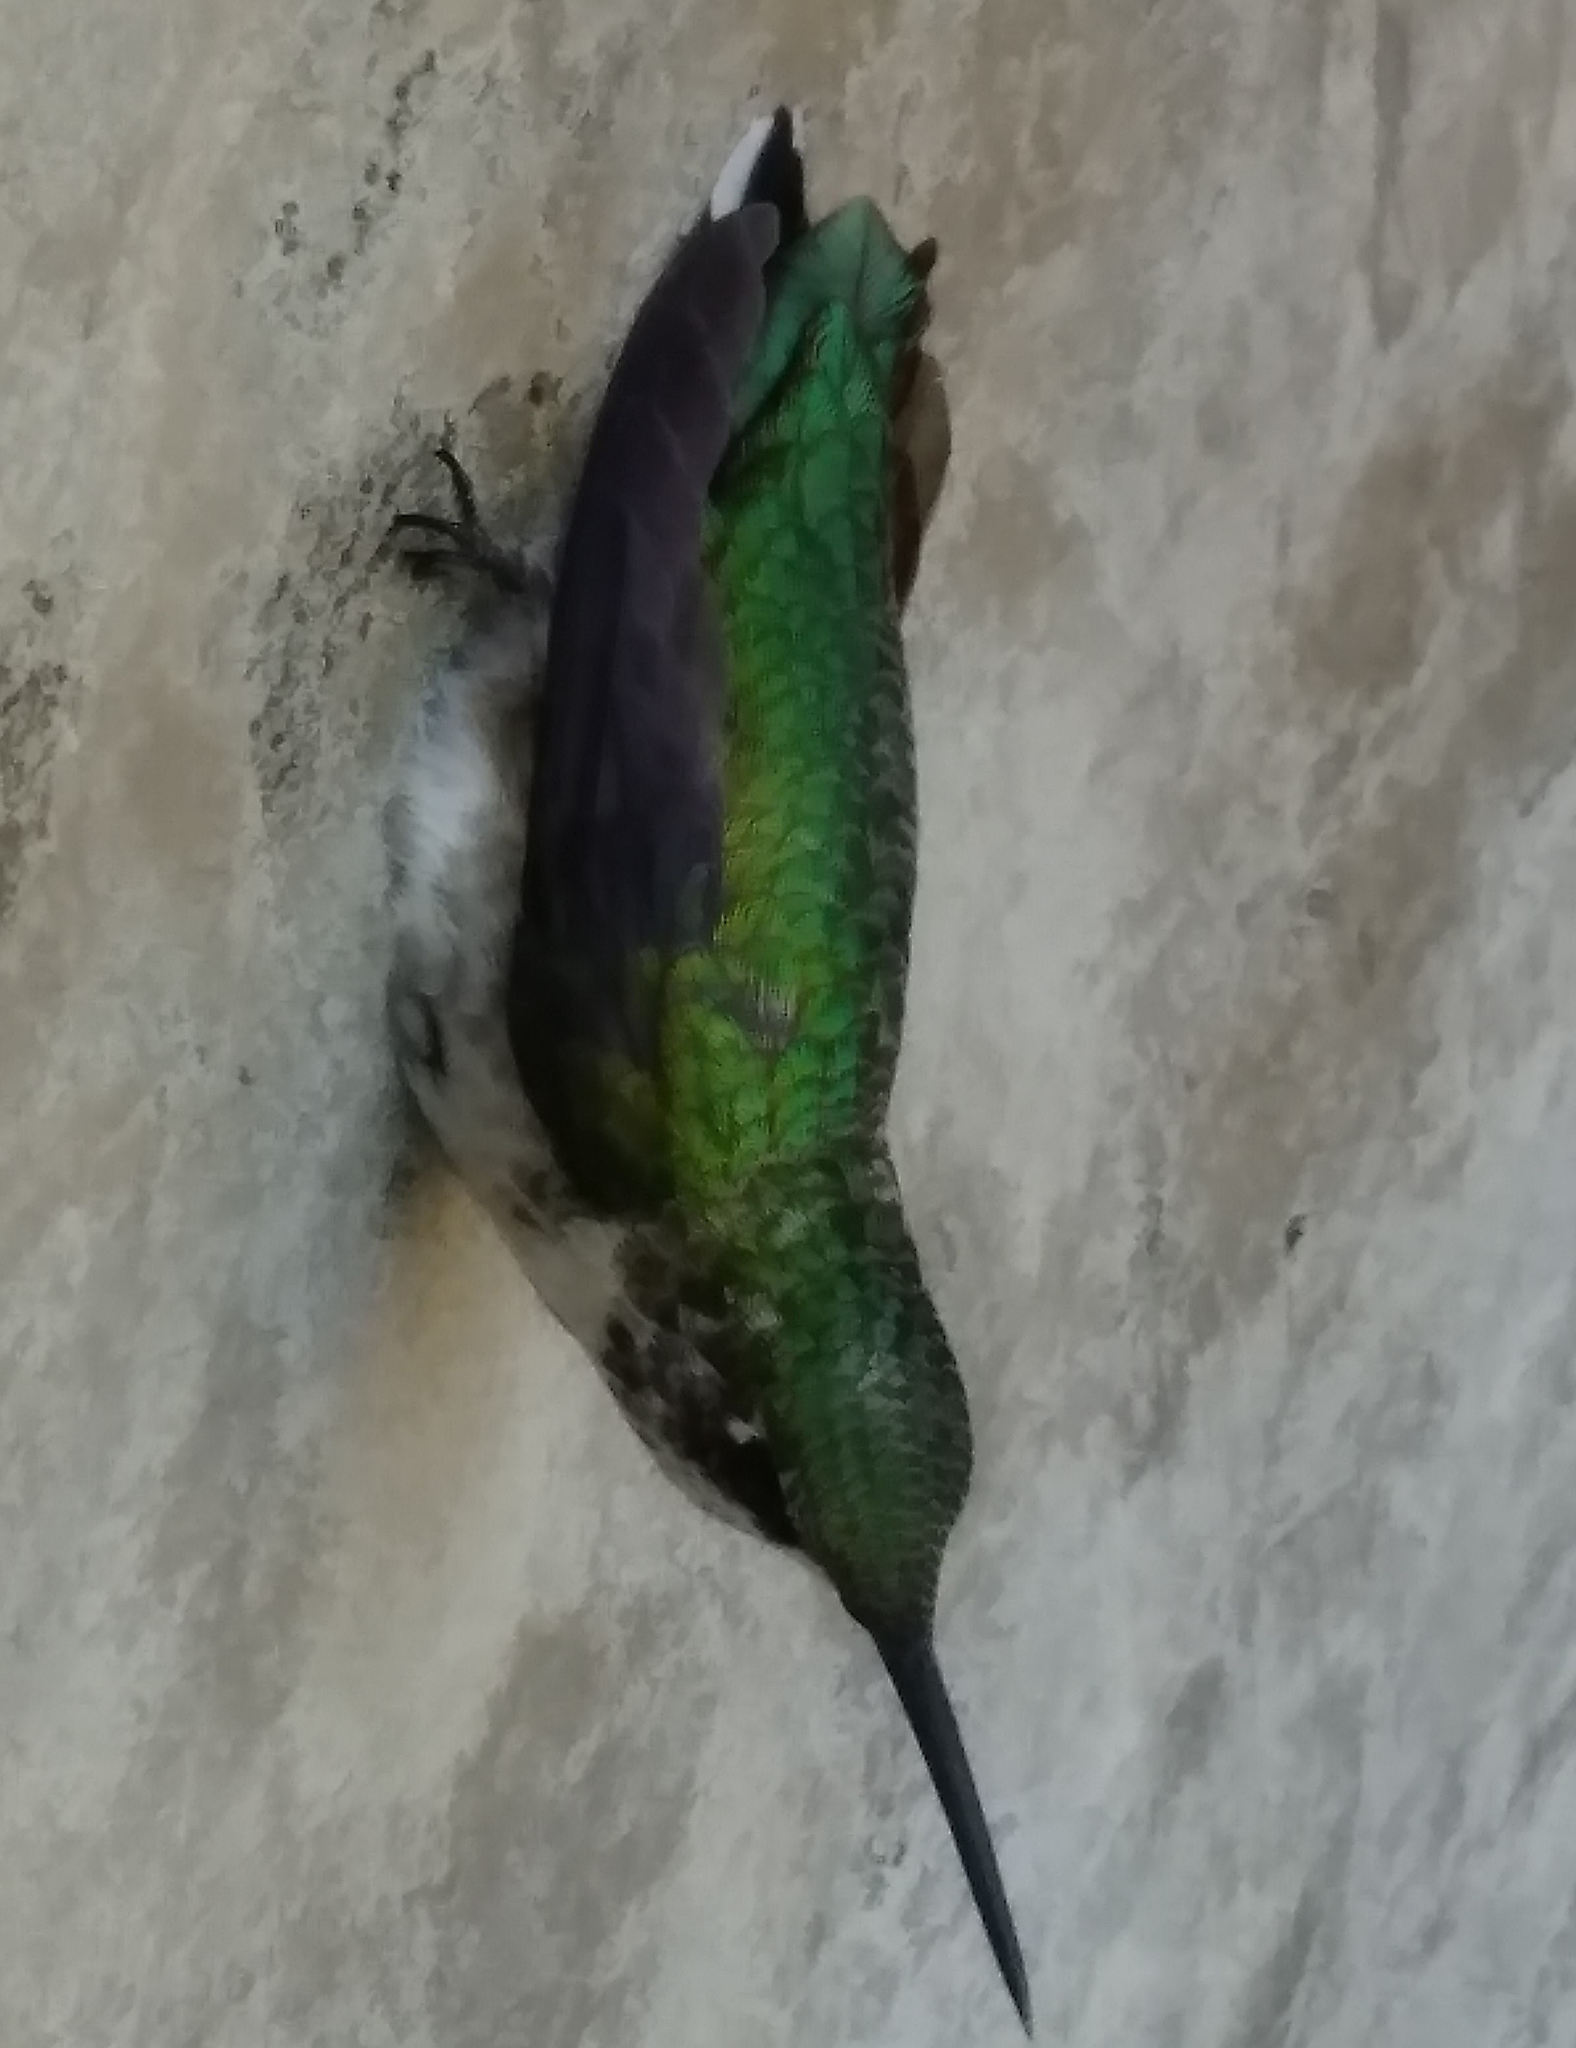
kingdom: Animalia
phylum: Chordata
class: Aves
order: Apodiformes
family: Trochilidae
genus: Archilochus
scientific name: Archilochus colubris
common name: Ruby-throated hummingbird
